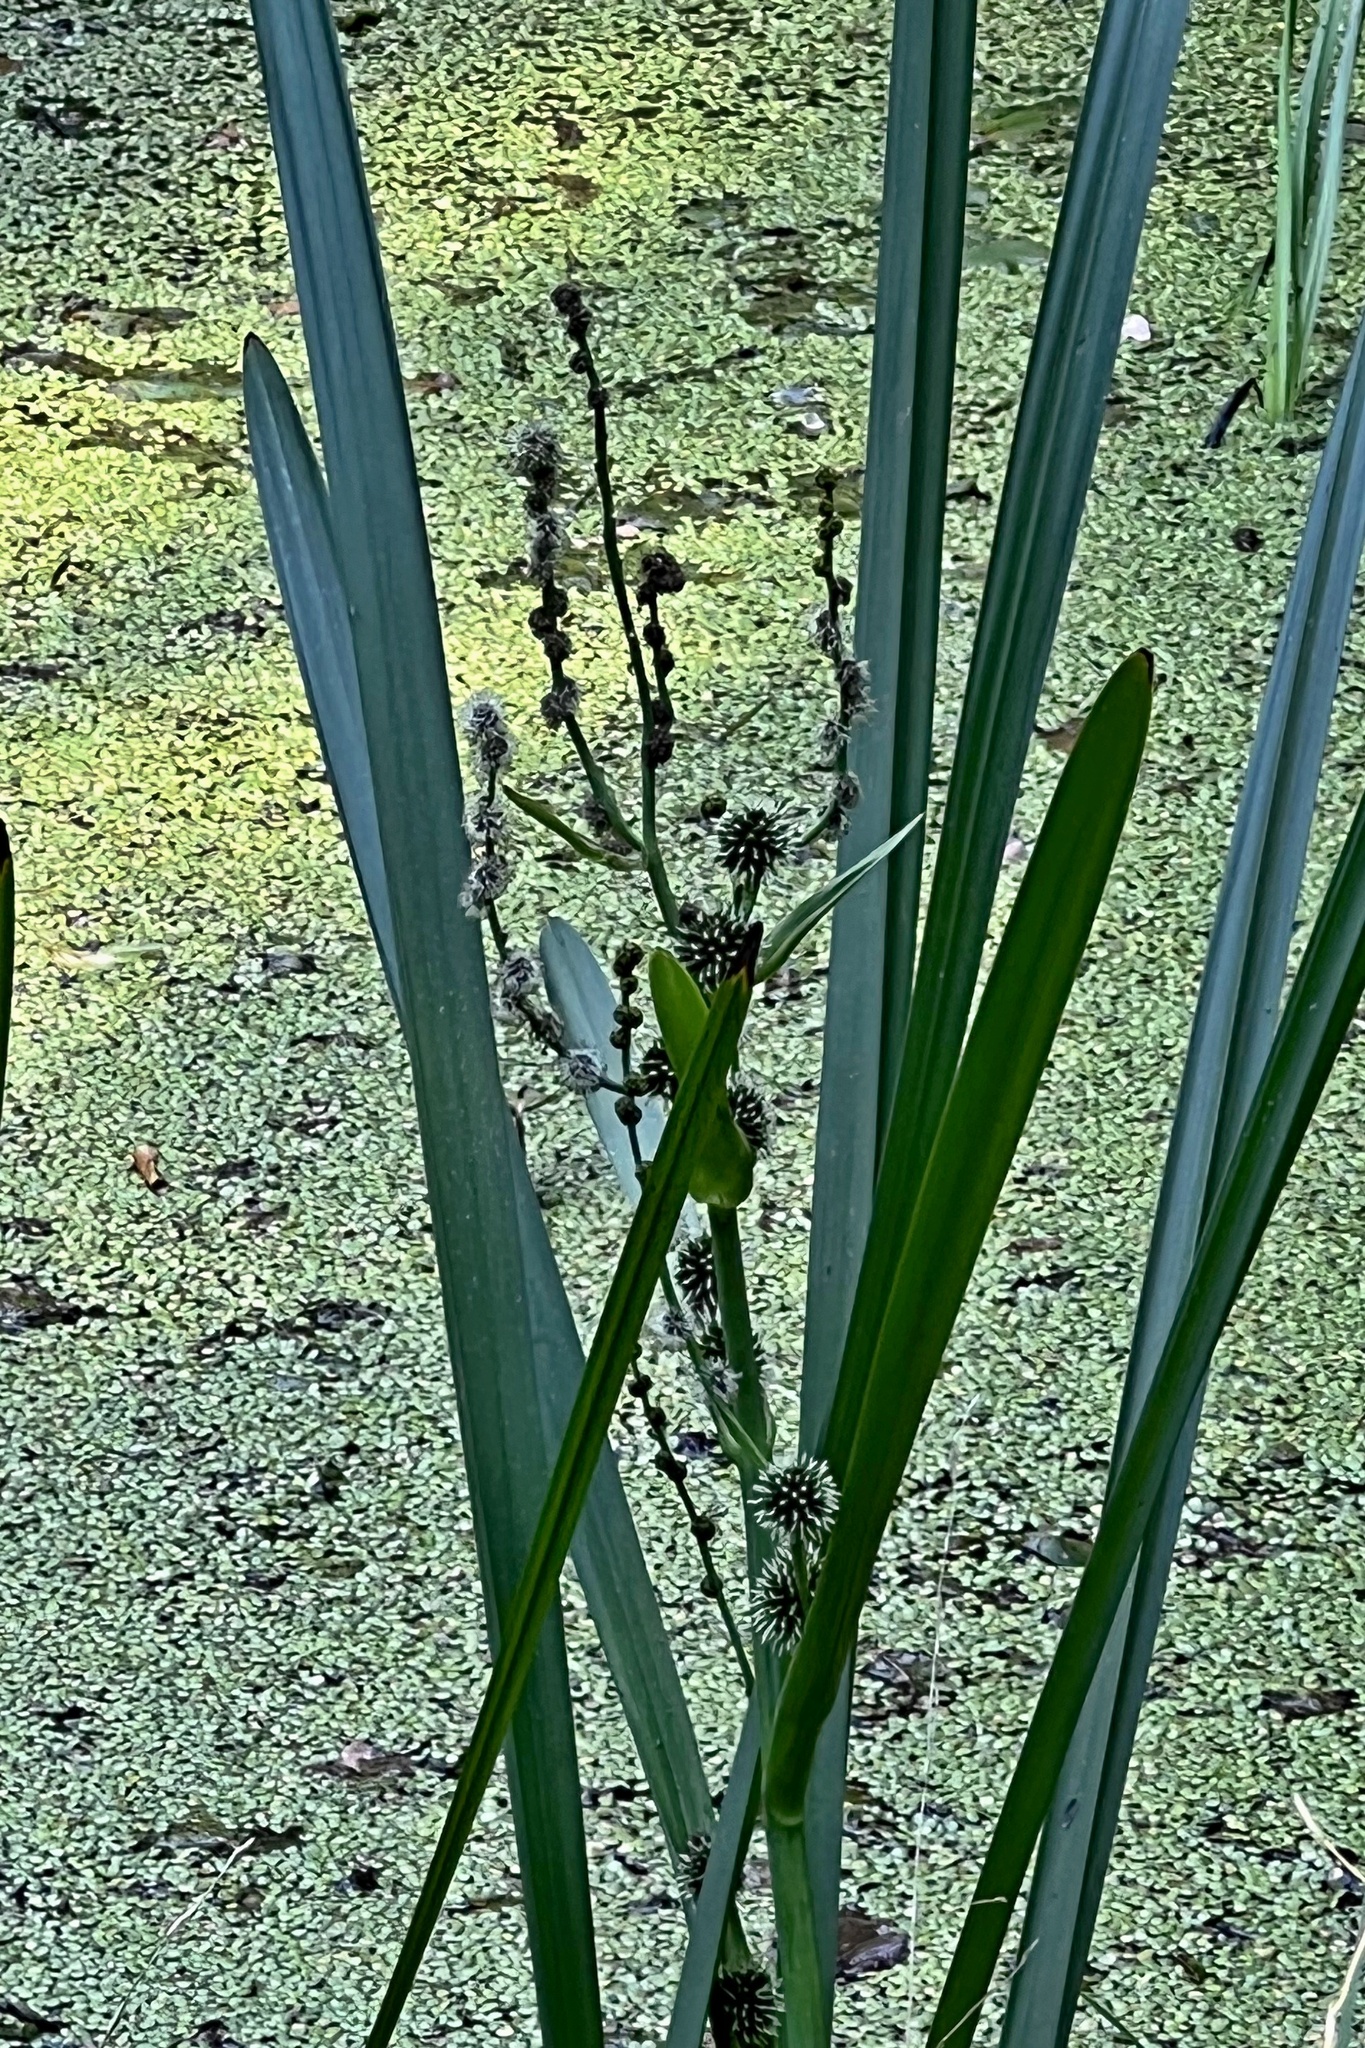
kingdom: Plantae
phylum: Tracheophyta
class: Liliopsida
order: Poales
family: Typhaceae
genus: Sparganium
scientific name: Sparganium erectum
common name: Branched bur-reed
